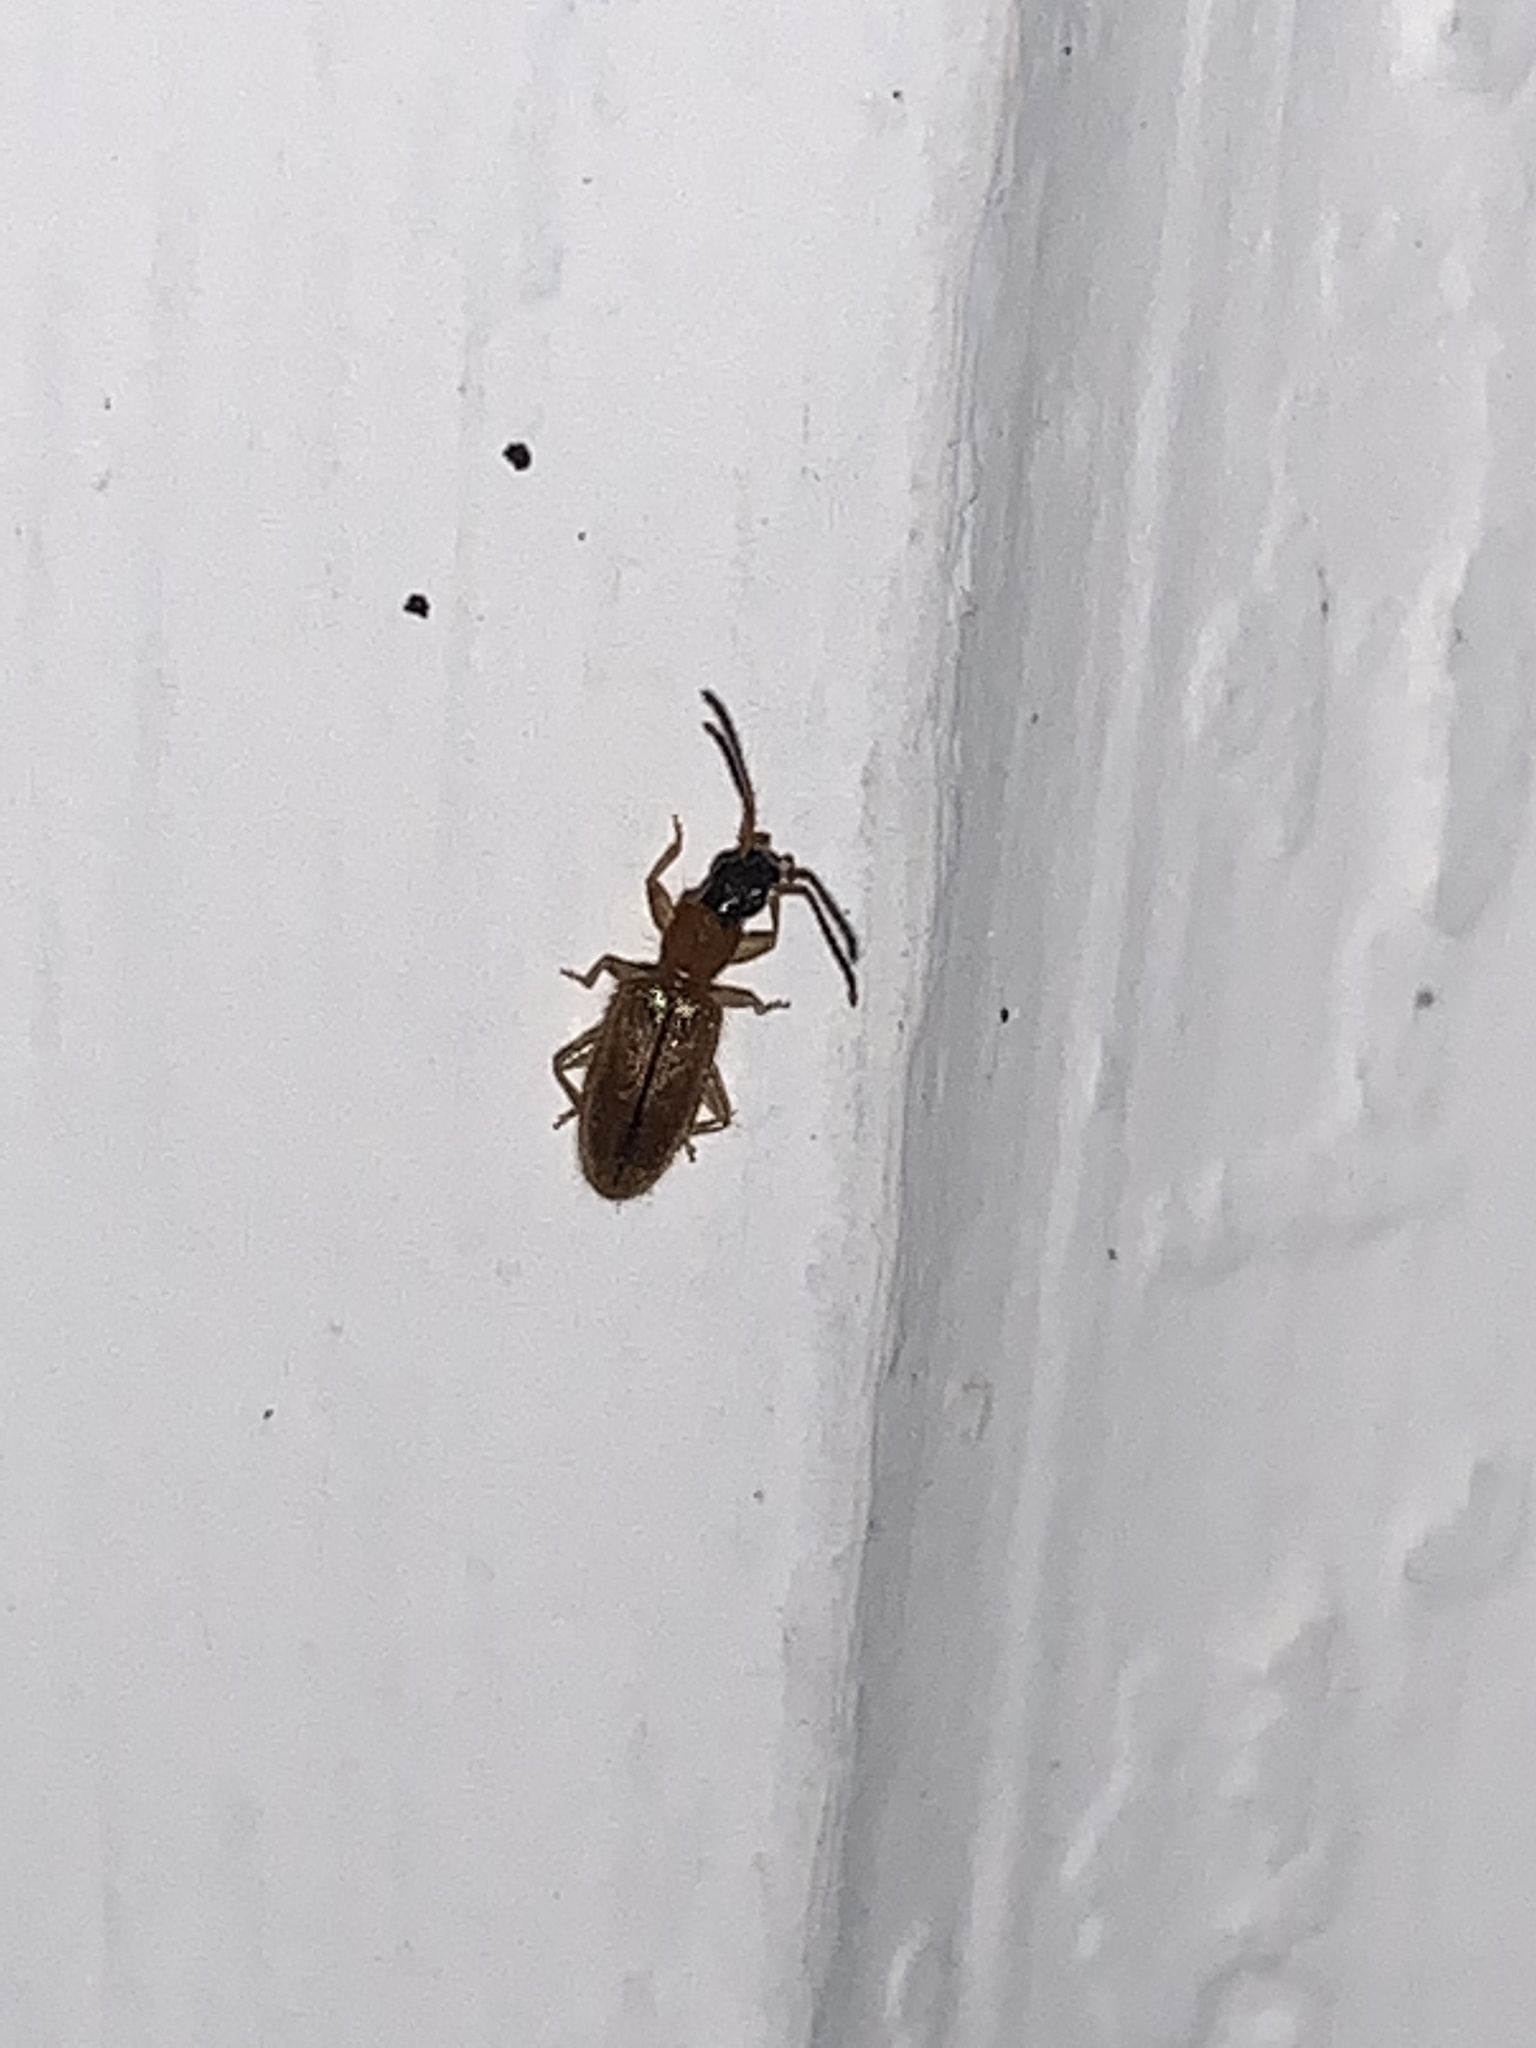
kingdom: Animalia
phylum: Arthropoda
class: Insecta
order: Coleoptera
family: Silvanidae
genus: Telephanus
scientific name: Telephanus velox
